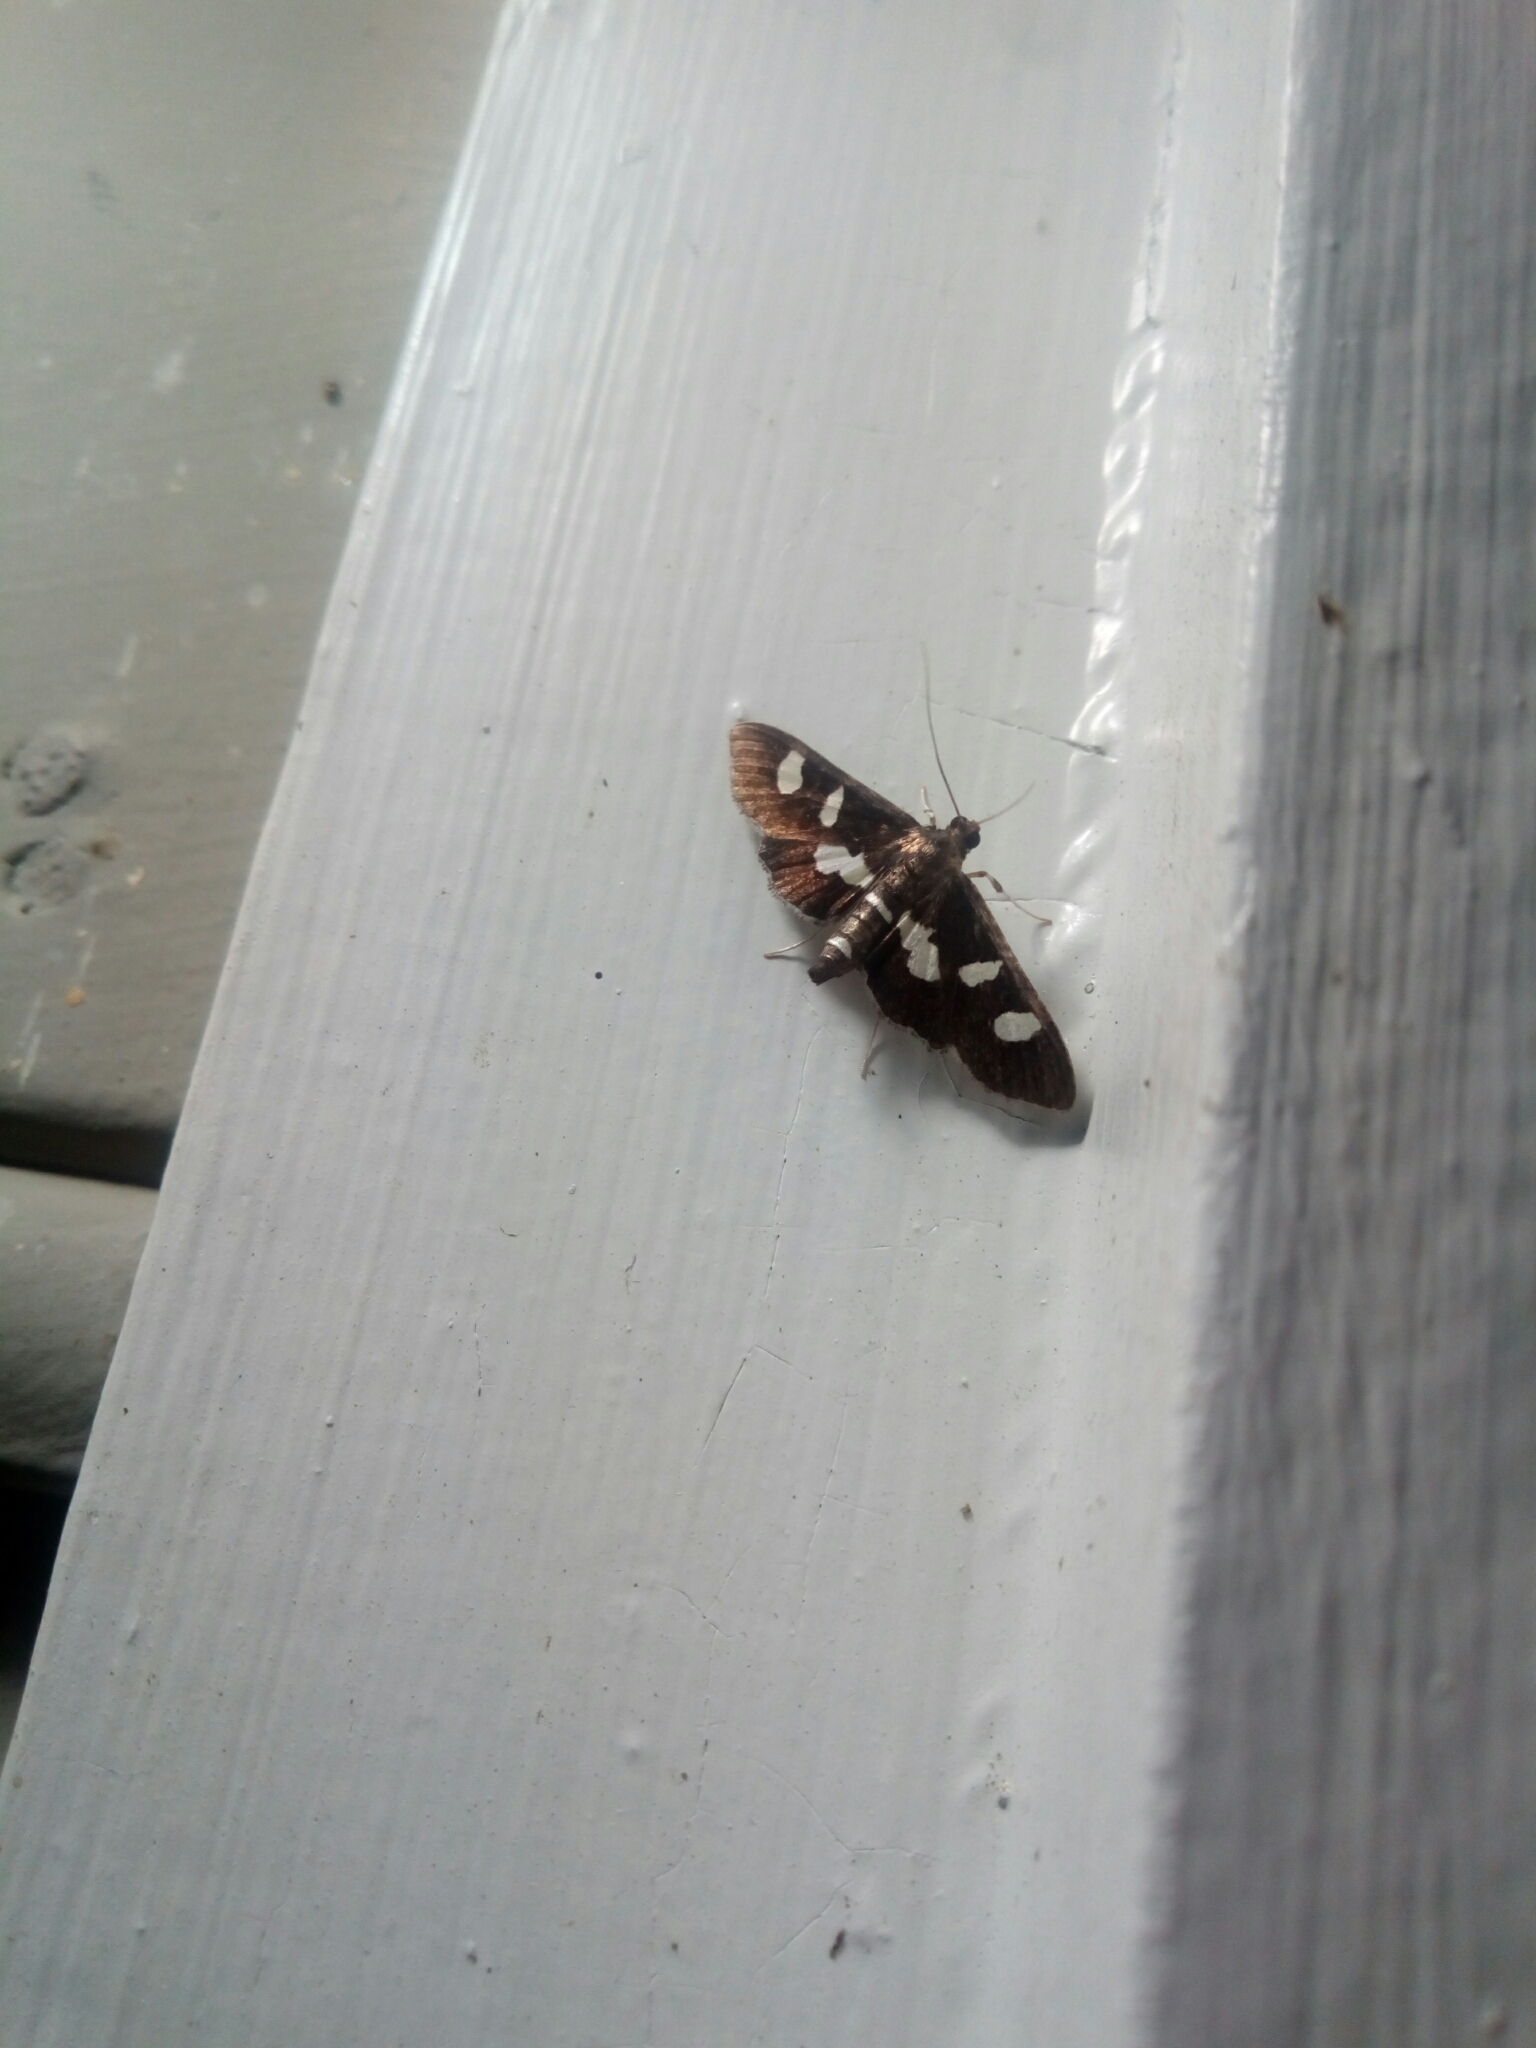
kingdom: Animalia
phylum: Arthropoda
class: Insecta
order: Lepidoptera
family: Crambidae
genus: Desmia
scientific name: Desmia
